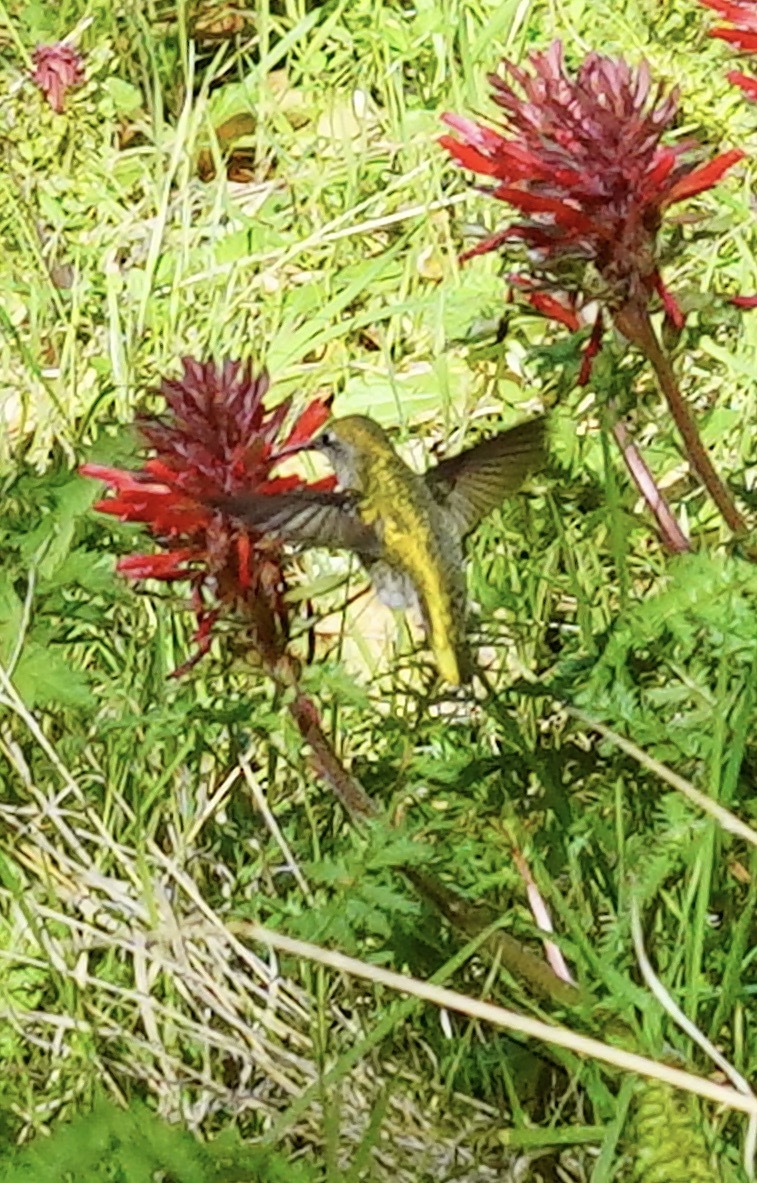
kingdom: Animalia
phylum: Chordata
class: Aves
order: Apodiformes
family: Trochilidae
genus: Calypte
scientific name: Calypte anna
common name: Anna's hummingbird
